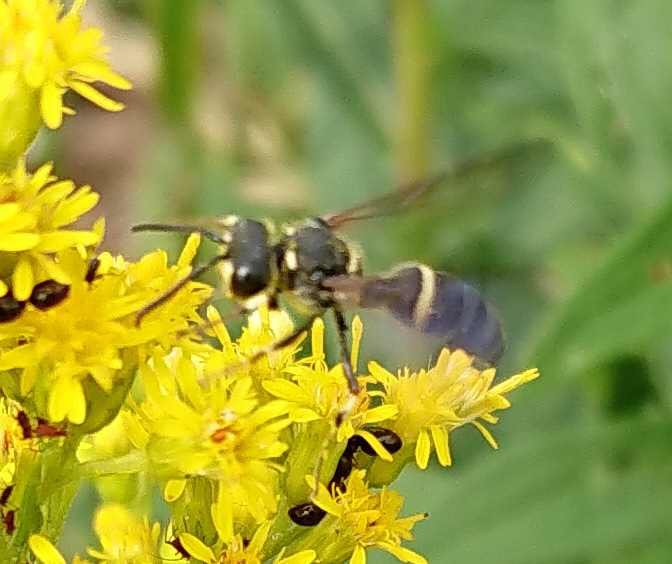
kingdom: Animalia
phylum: Arthropoda
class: Insecta
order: Hymenoptera
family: Crabronidae
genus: Cerceris
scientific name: Cerceris fumipennis
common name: Smokey-winged beetle bandit wasp
